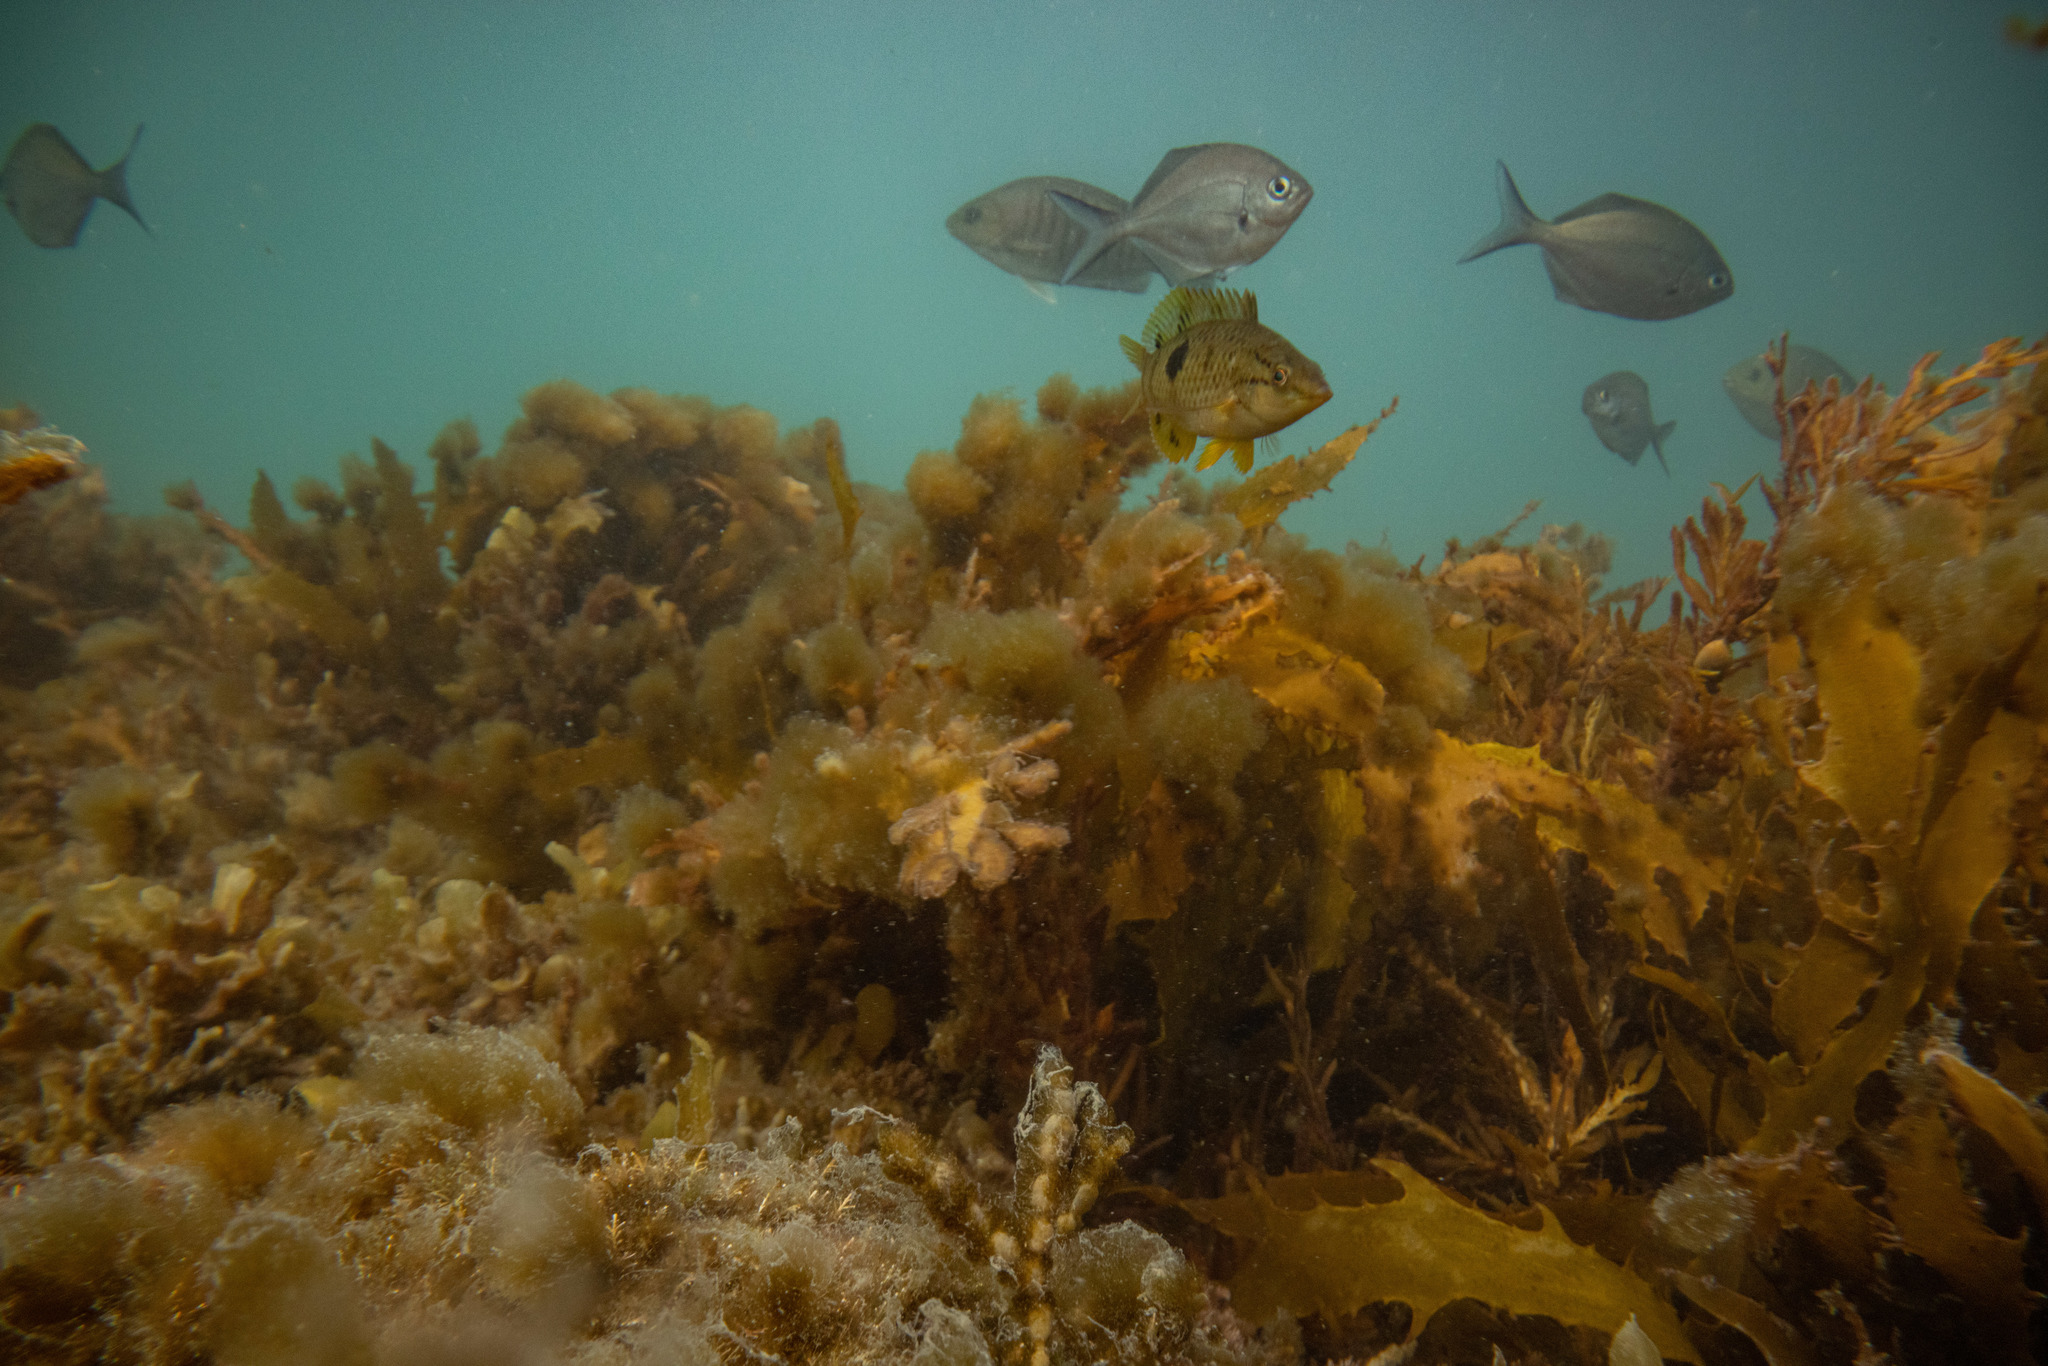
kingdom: Animalia
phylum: Chordata
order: Perciformes
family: Kyphosidae
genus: Scorpis
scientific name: Scorpis lineolata
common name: Sweep
